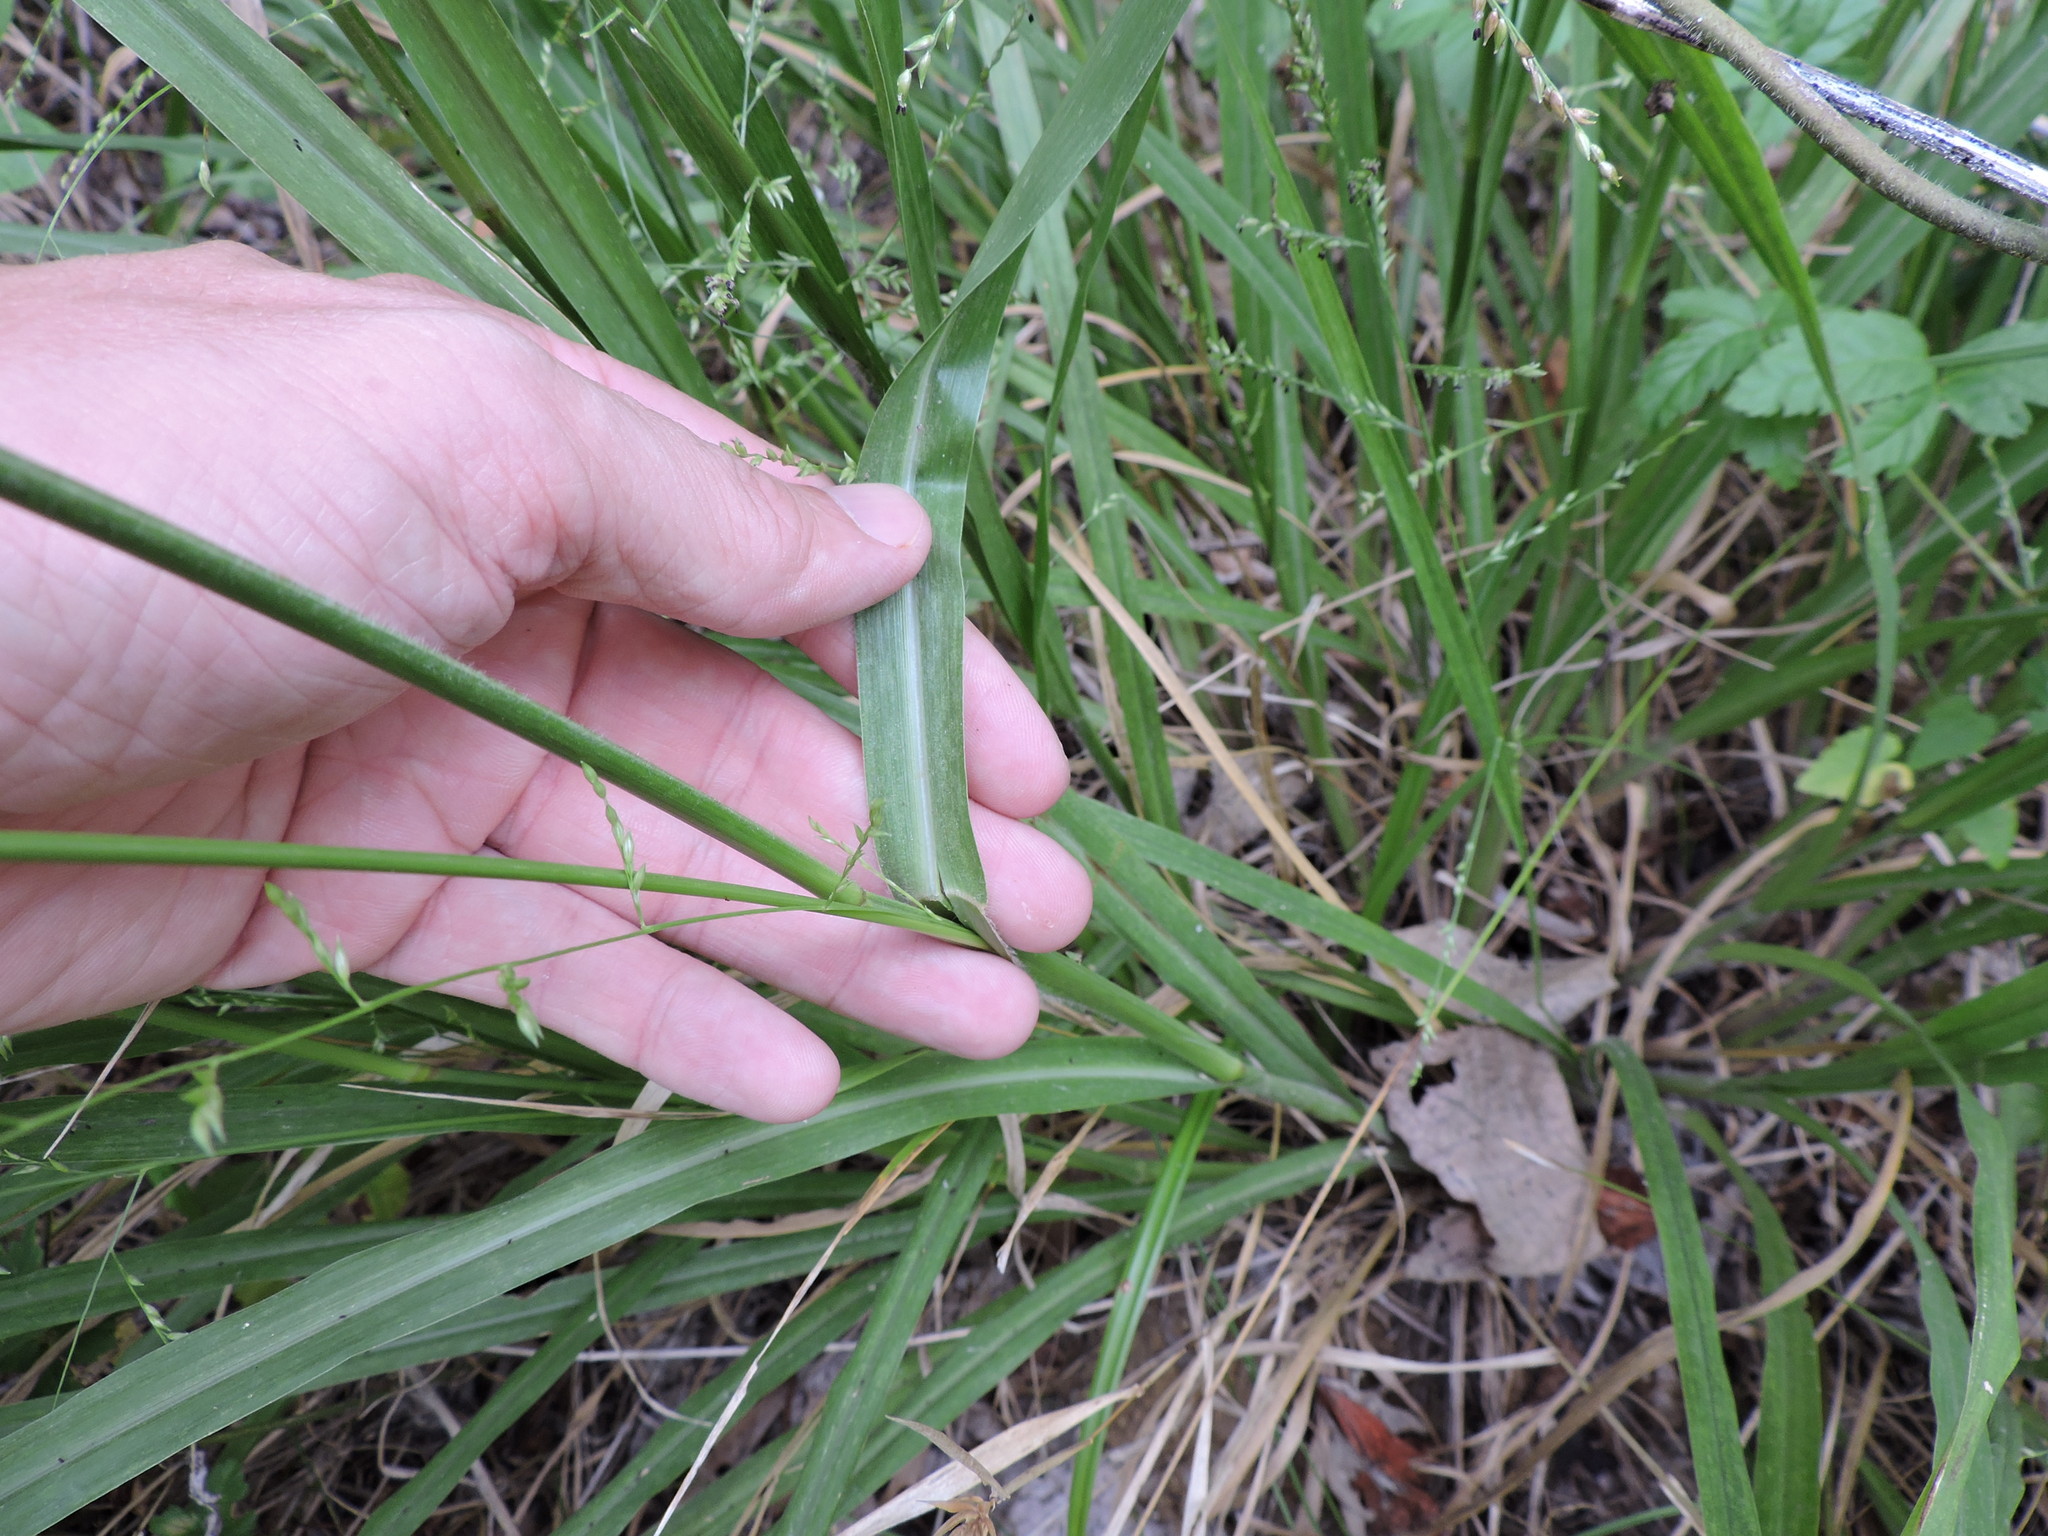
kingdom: Plantae
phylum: Tracheophyta
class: Liliopsida
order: Poales
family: Poaceae
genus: Coleataenia
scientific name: Coleataenia anceps
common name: Beaked panic grass
